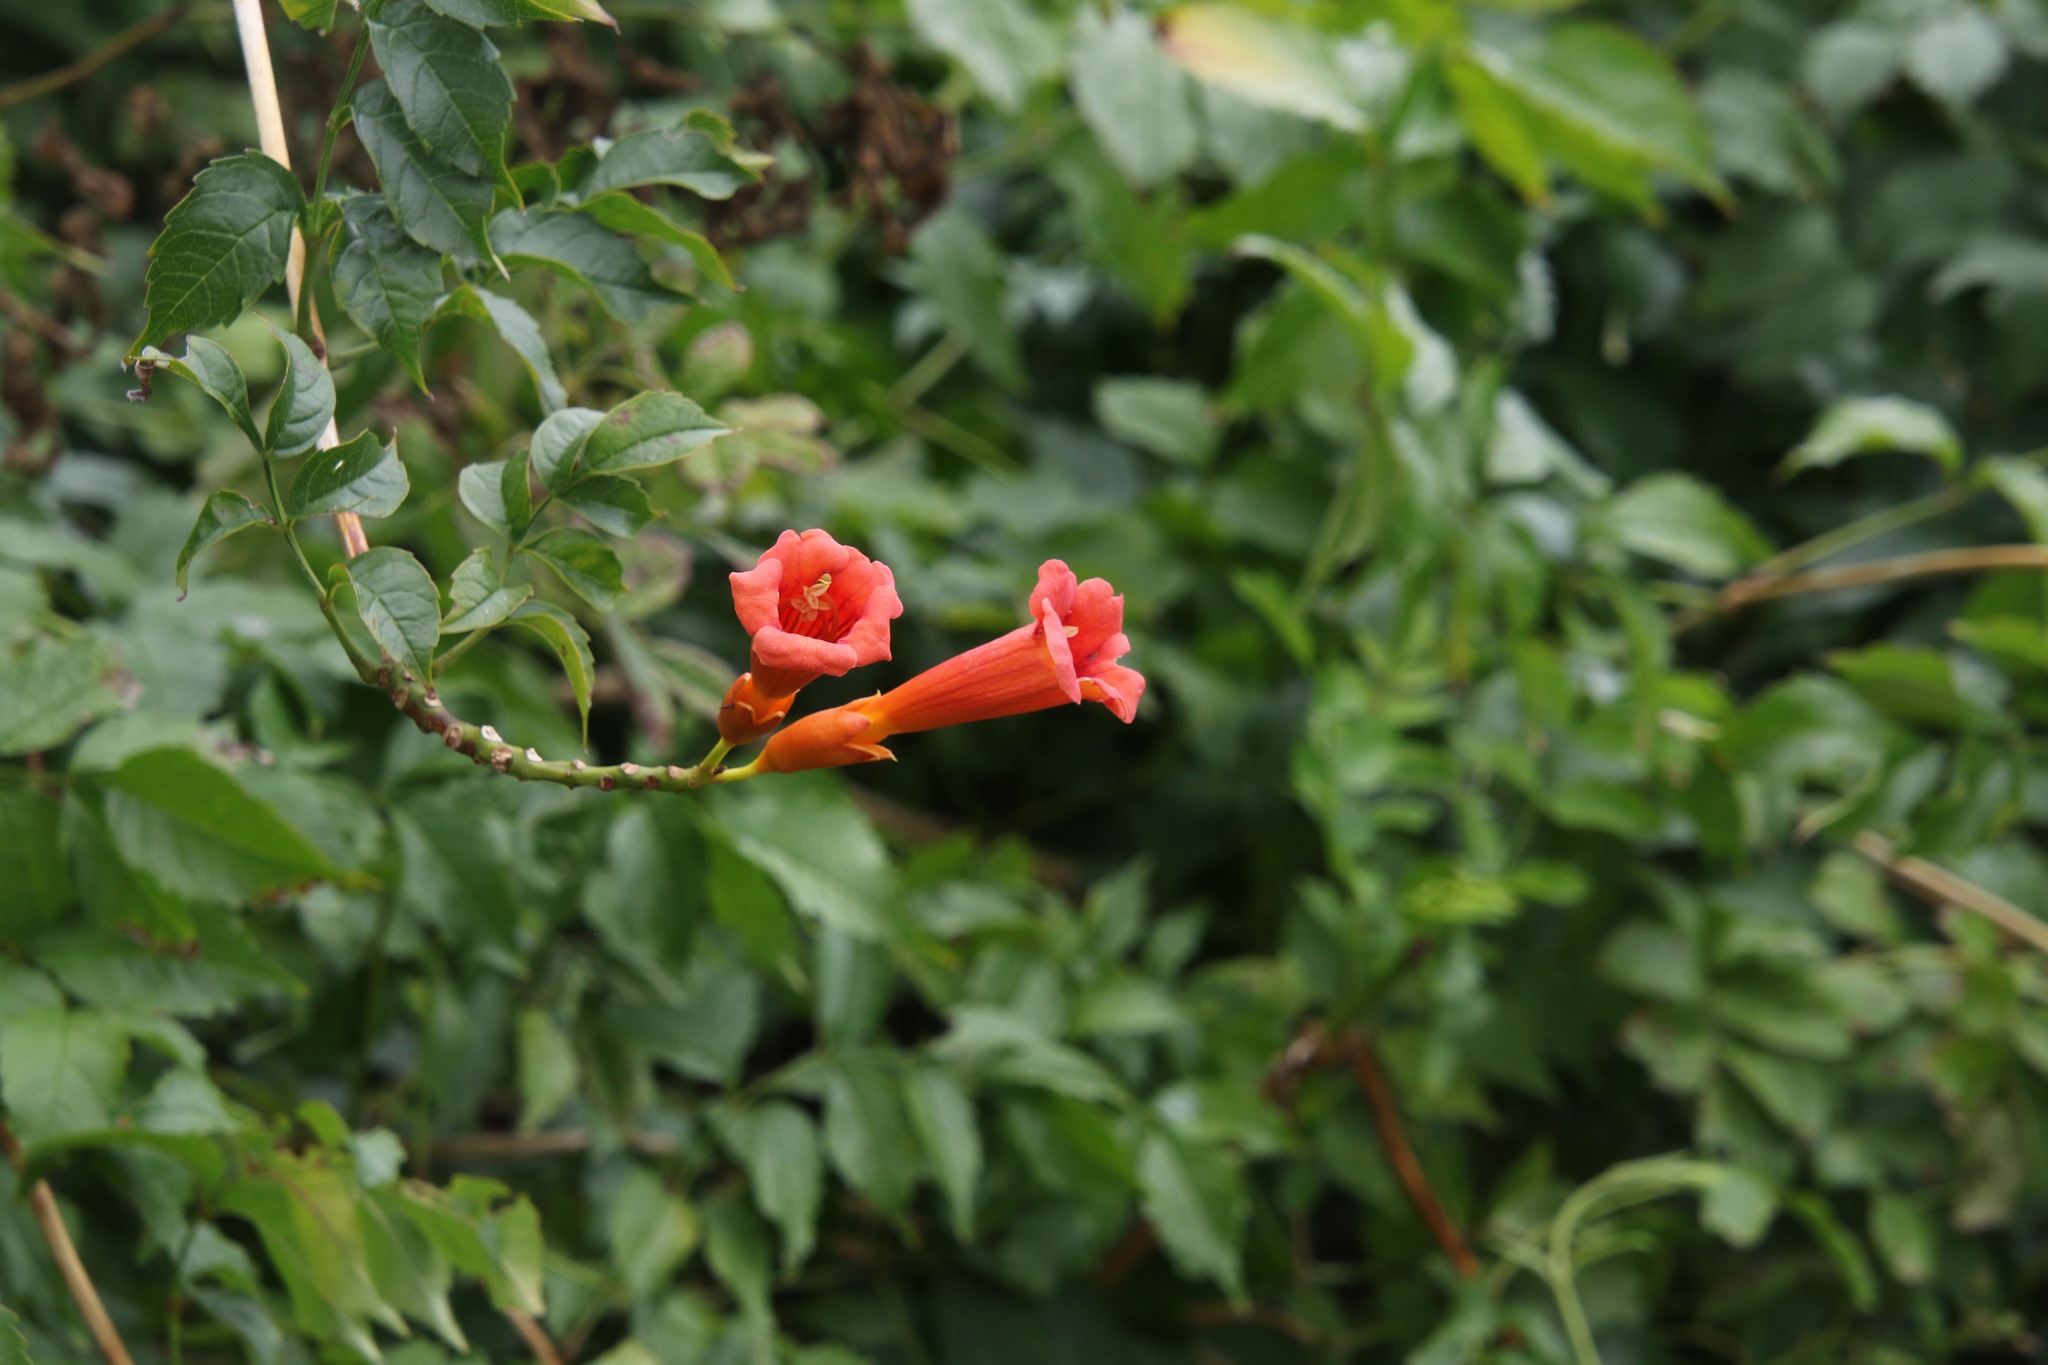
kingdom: Plantae
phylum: Tracheophyta
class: Magnoliopsida
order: Lamiales
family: Bignoniaceae
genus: Campsis
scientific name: Campsis radicans
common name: Trumpet-creeper
